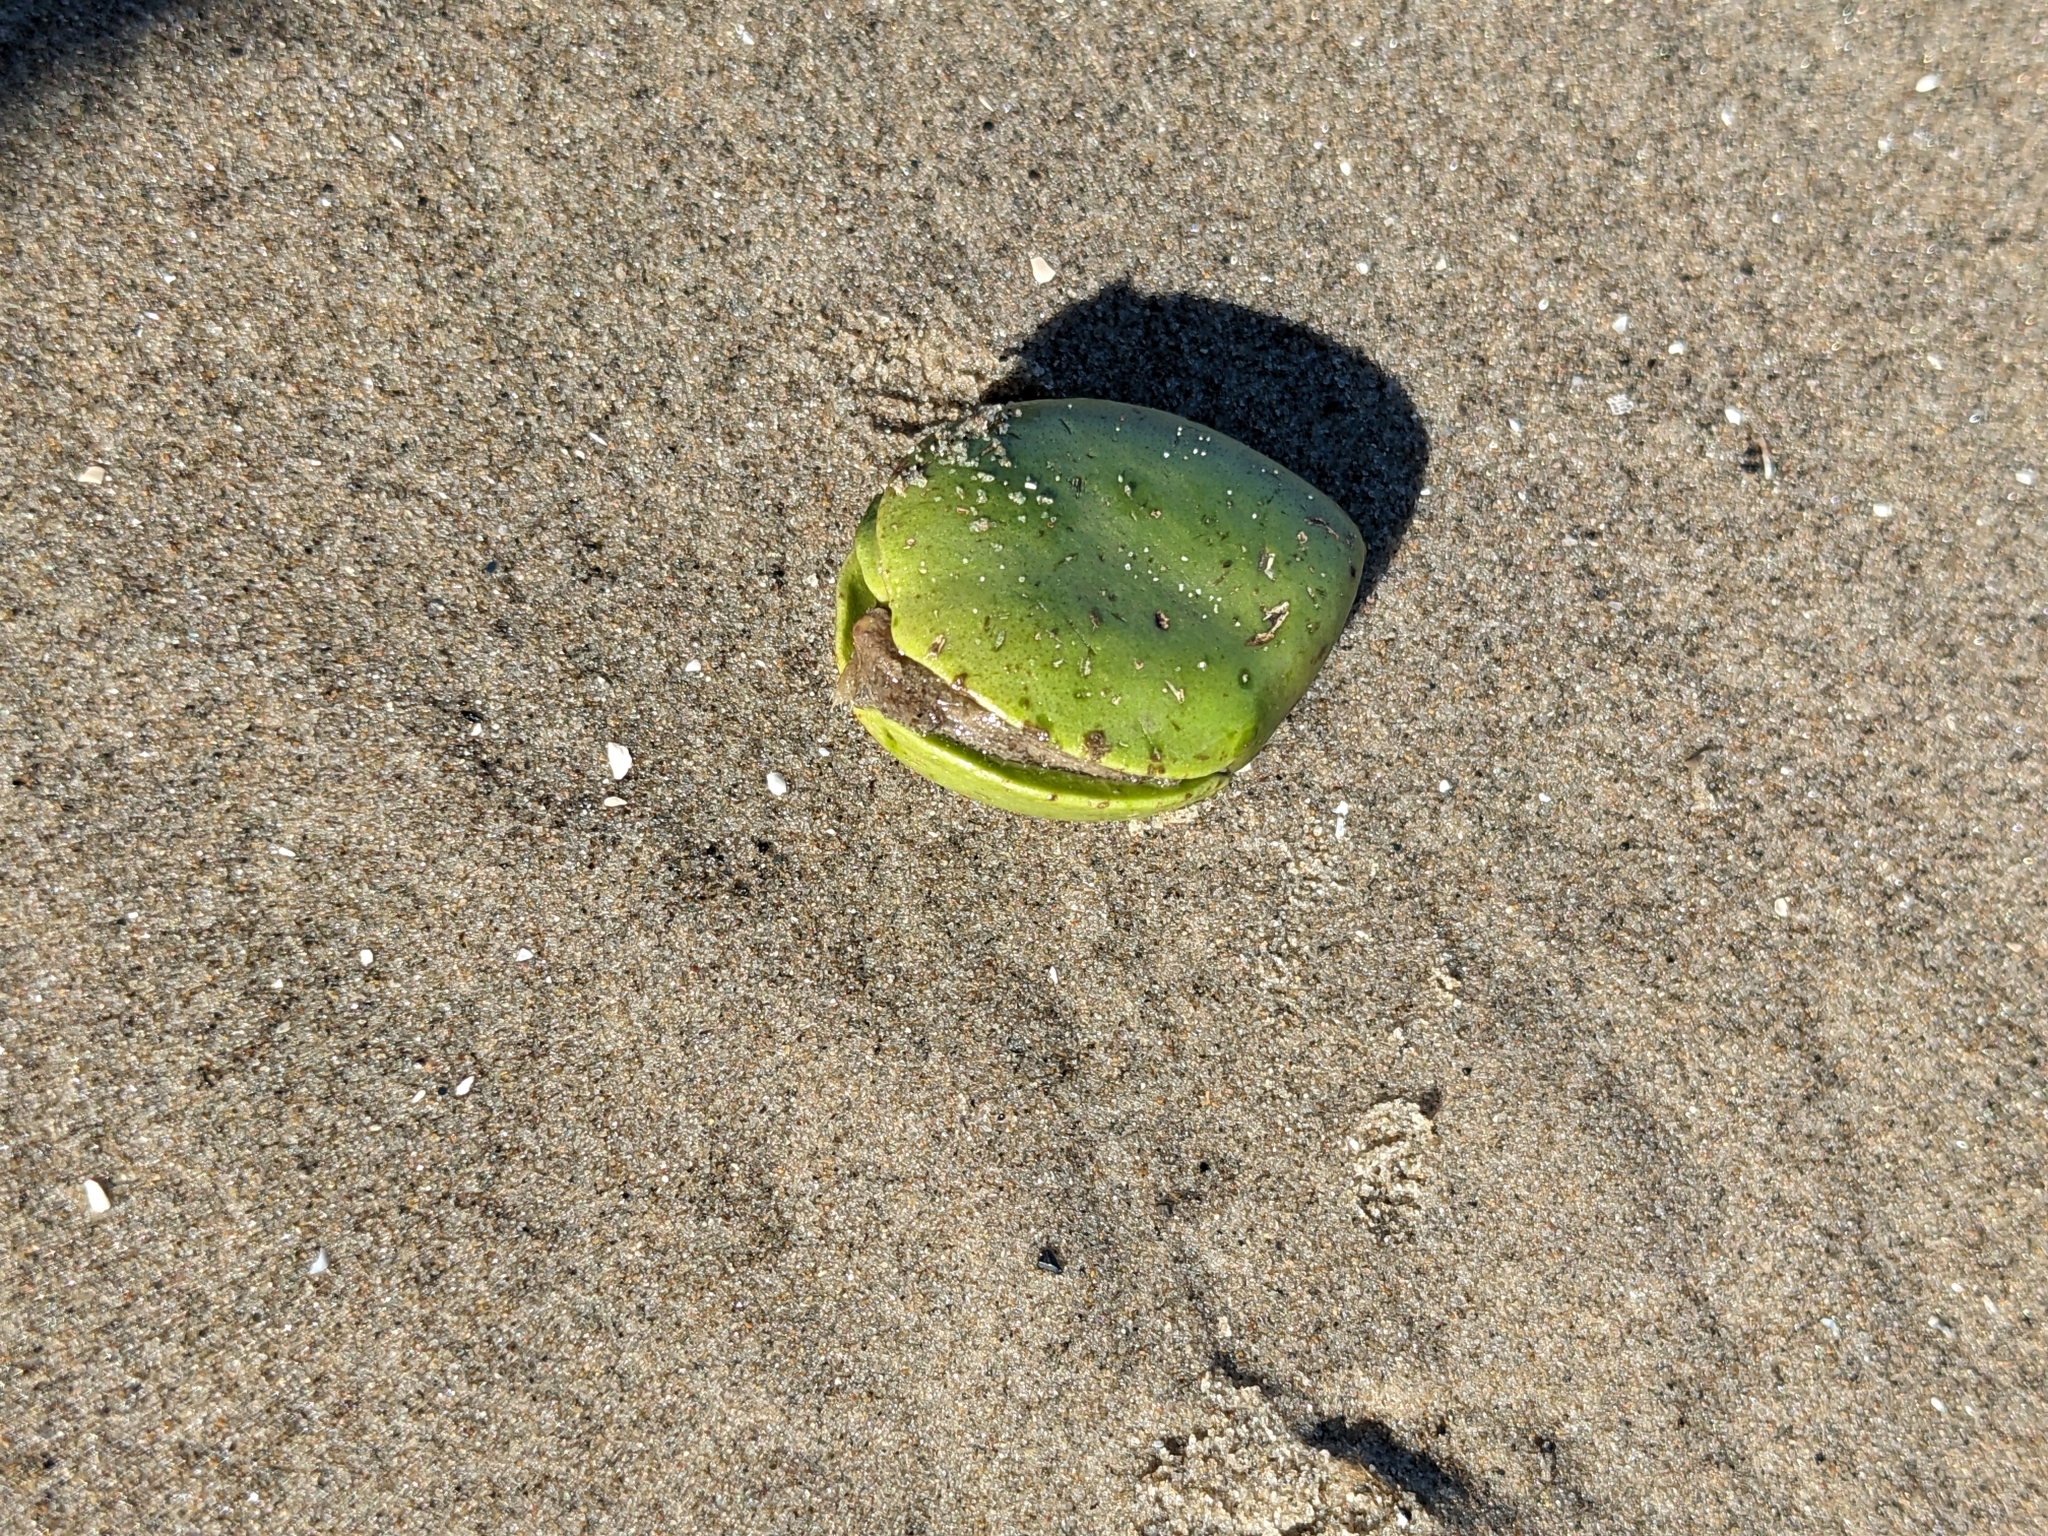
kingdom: Plantae
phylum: Tracheophyta
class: Magnoliopsida
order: Lamiales
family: Acanthaceae
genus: Avicennia
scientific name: Avicennia germinans
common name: Black mangrove
